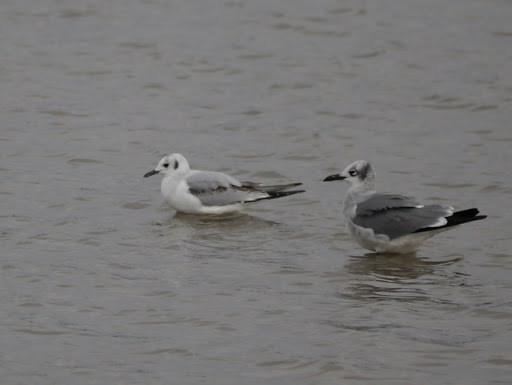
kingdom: Animalia
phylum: Chordata
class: Aves
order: Charadriiformes
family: Laridae
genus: Leucophaeus
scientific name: Leucophaeus atricilla
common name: Laughing gull
